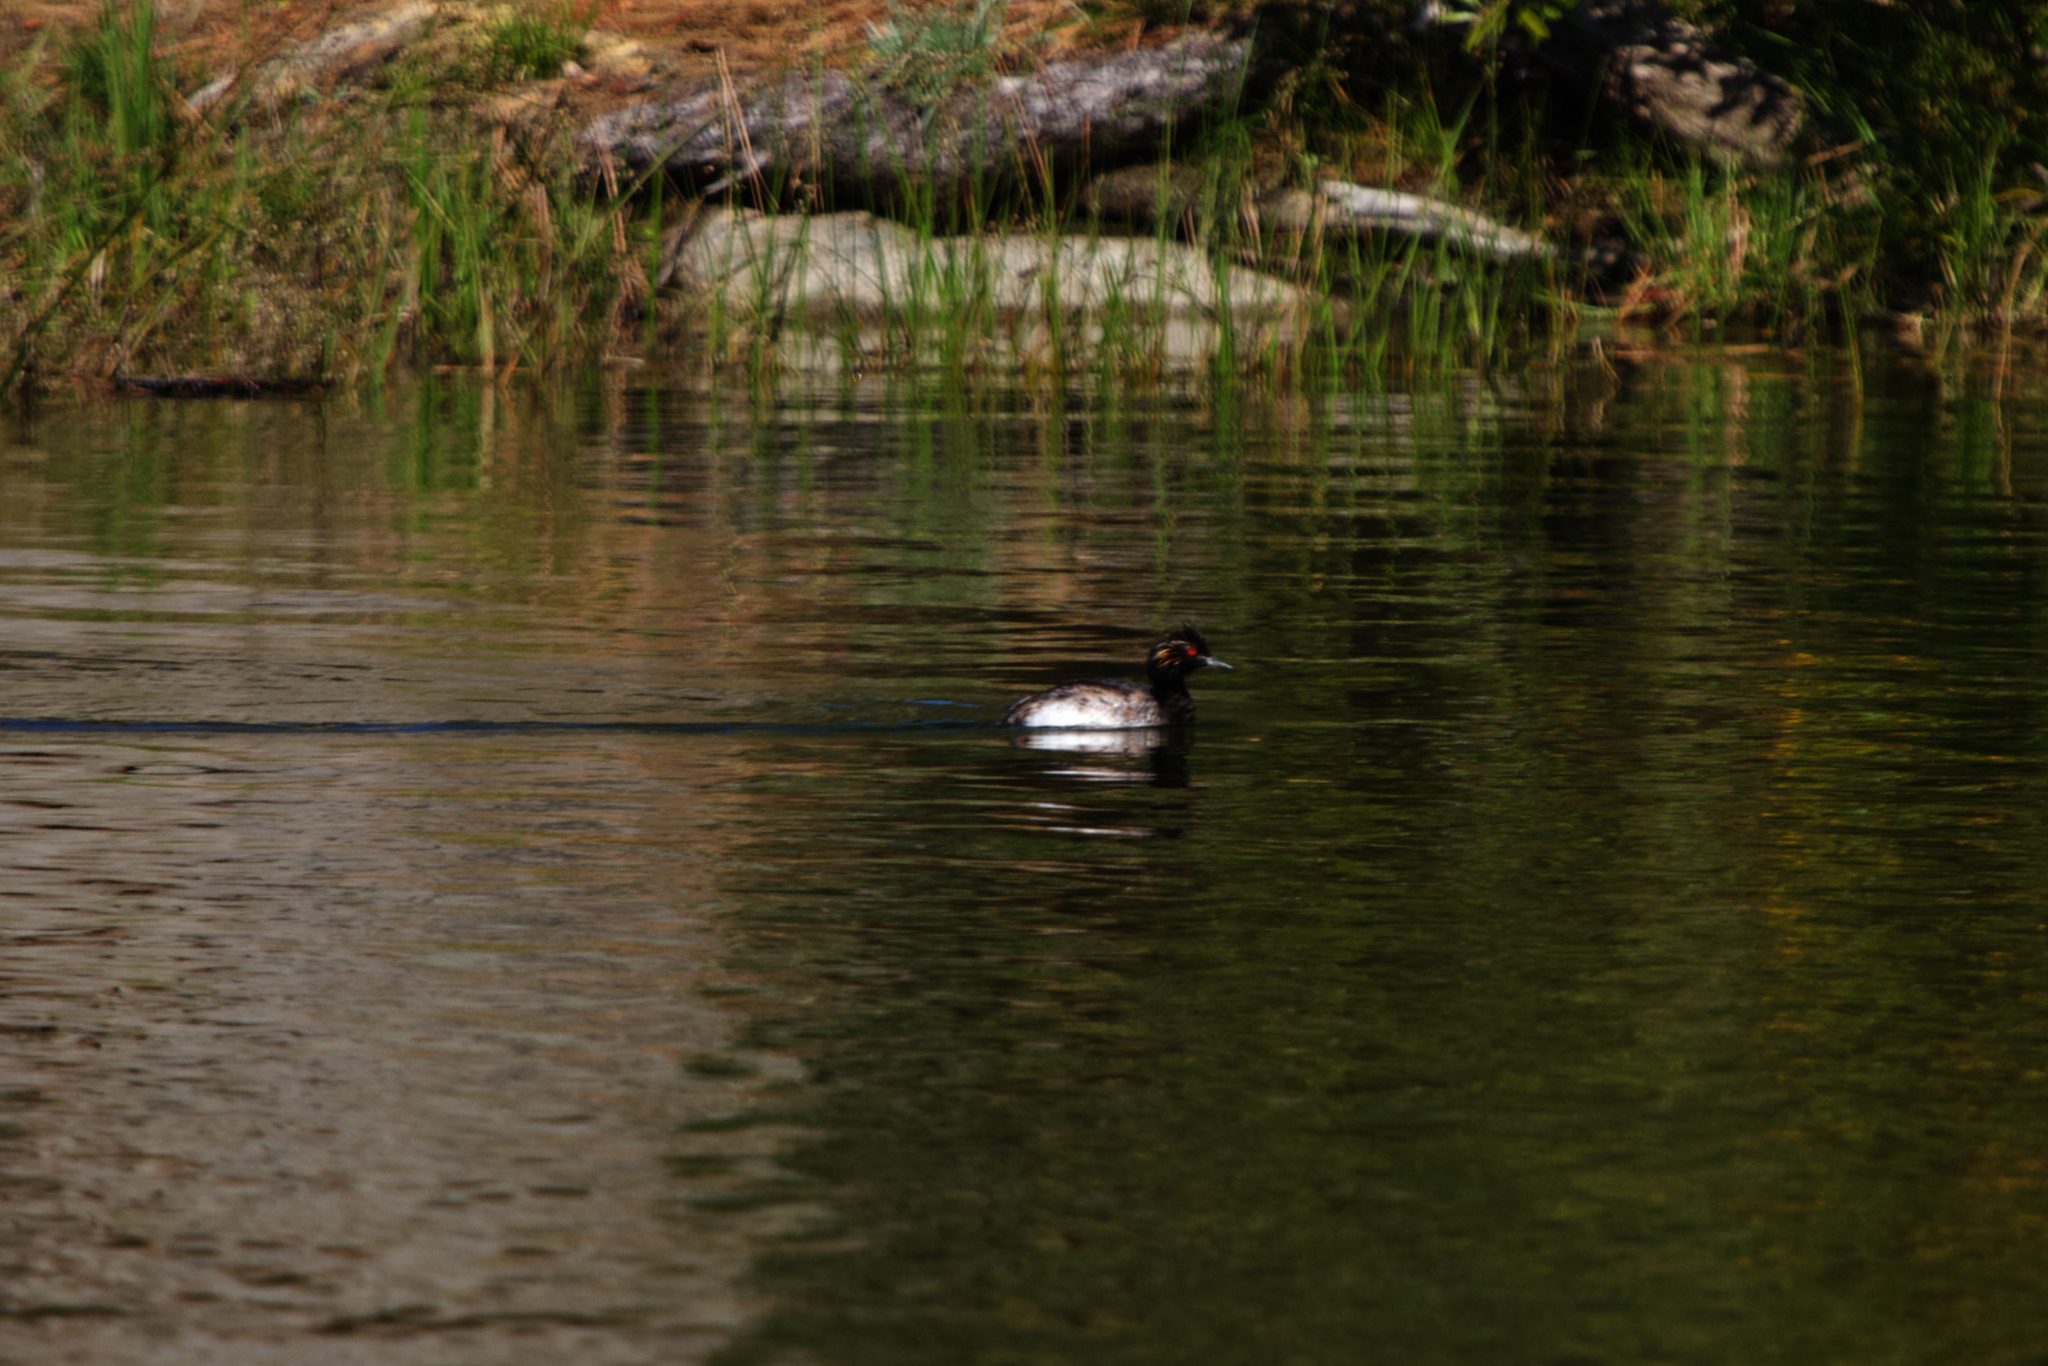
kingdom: Animalia
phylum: Chordata
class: Aves
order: Podicipediformes
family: Podicipedidae
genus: Podiceps
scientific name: Podiceps nigricollis
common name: Black-necked grebe
